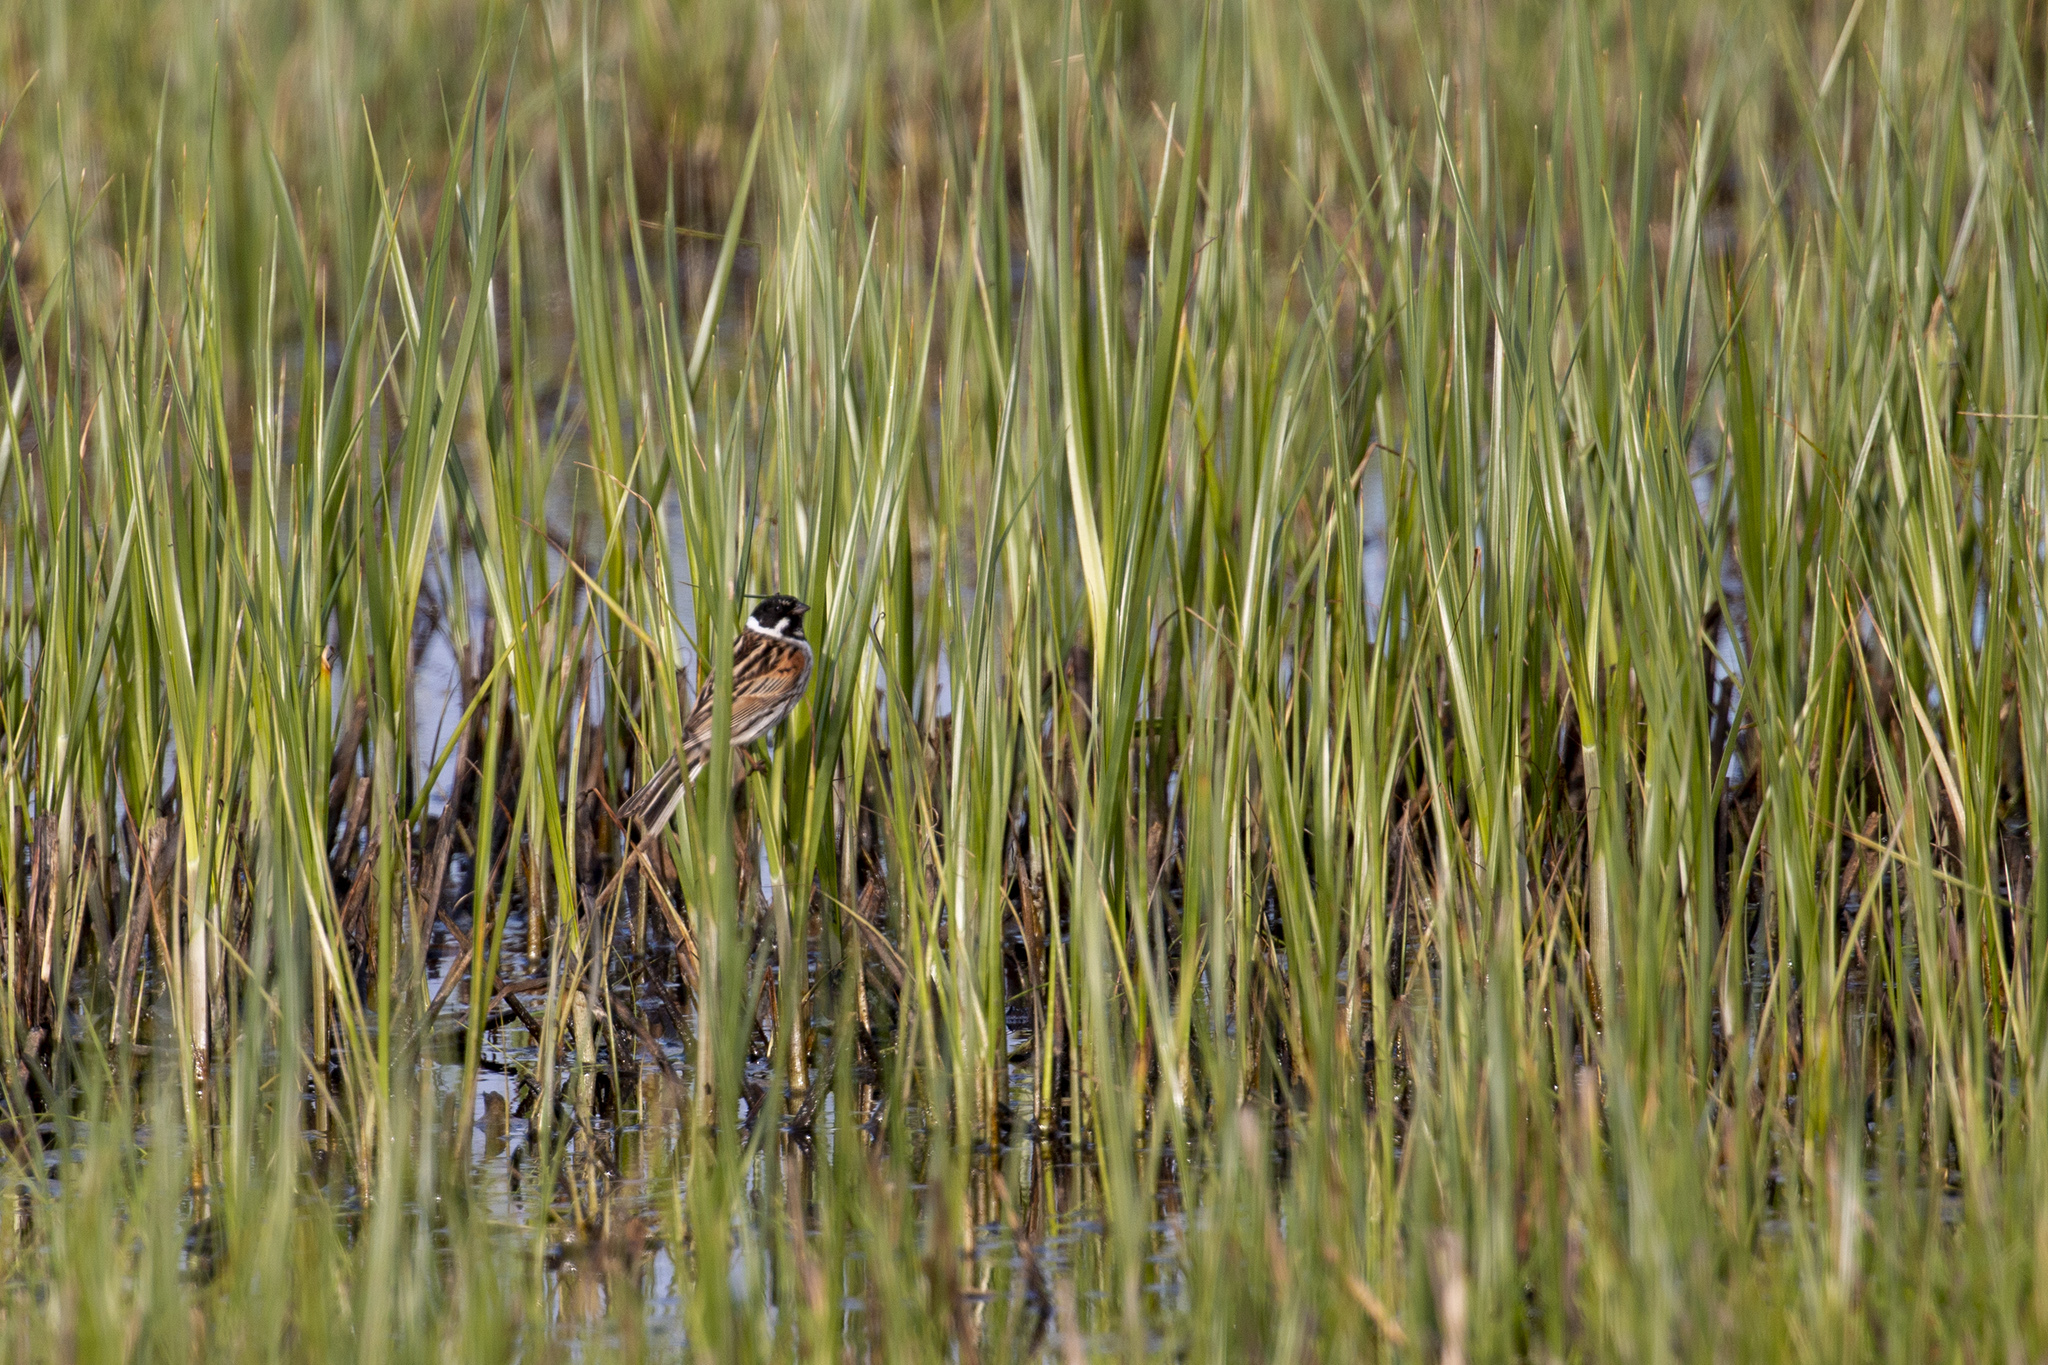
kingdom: Animalia
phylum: Chordata
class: Aves
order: Passeriformes
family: Emberizidae
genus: Emberiza
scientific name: Emberiza schoeniclus
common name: Reed bunting
